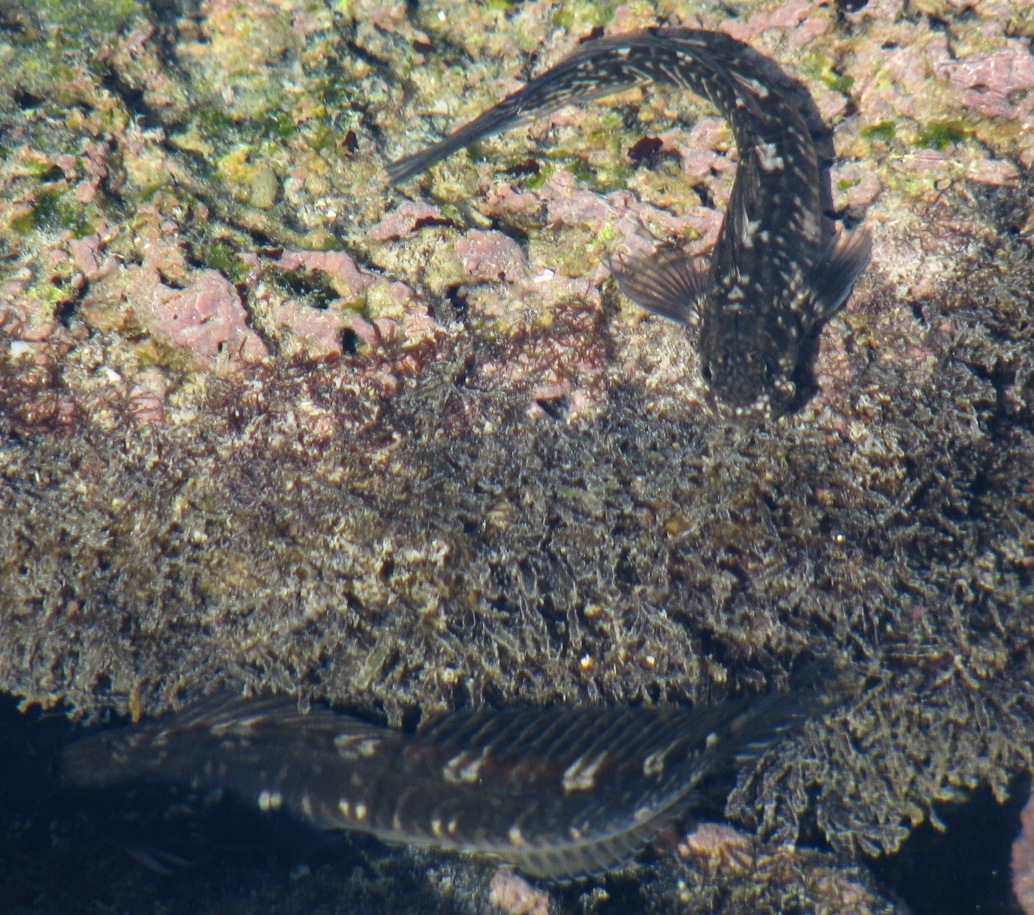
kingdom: Animalia
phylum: Chordata
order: Perciformes
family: Blenniidae
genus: Istiblennius
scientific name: Istiblennius zebra
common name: Zebra blenny
